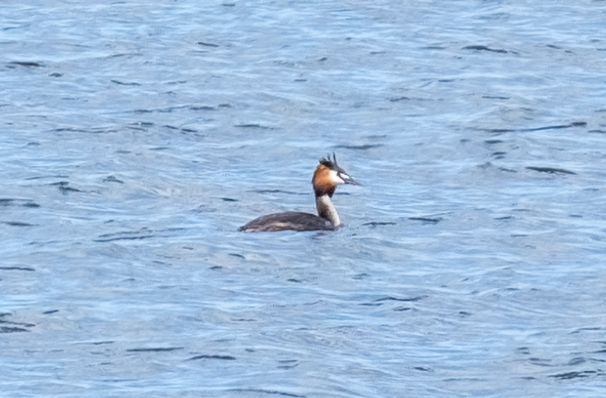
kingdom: Animalia
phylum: Chordata
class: Aves
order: Podicipediformes
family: Podicipedidae
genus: Podiceps
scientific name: Podiceps cristatus
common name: Great crested grebe
